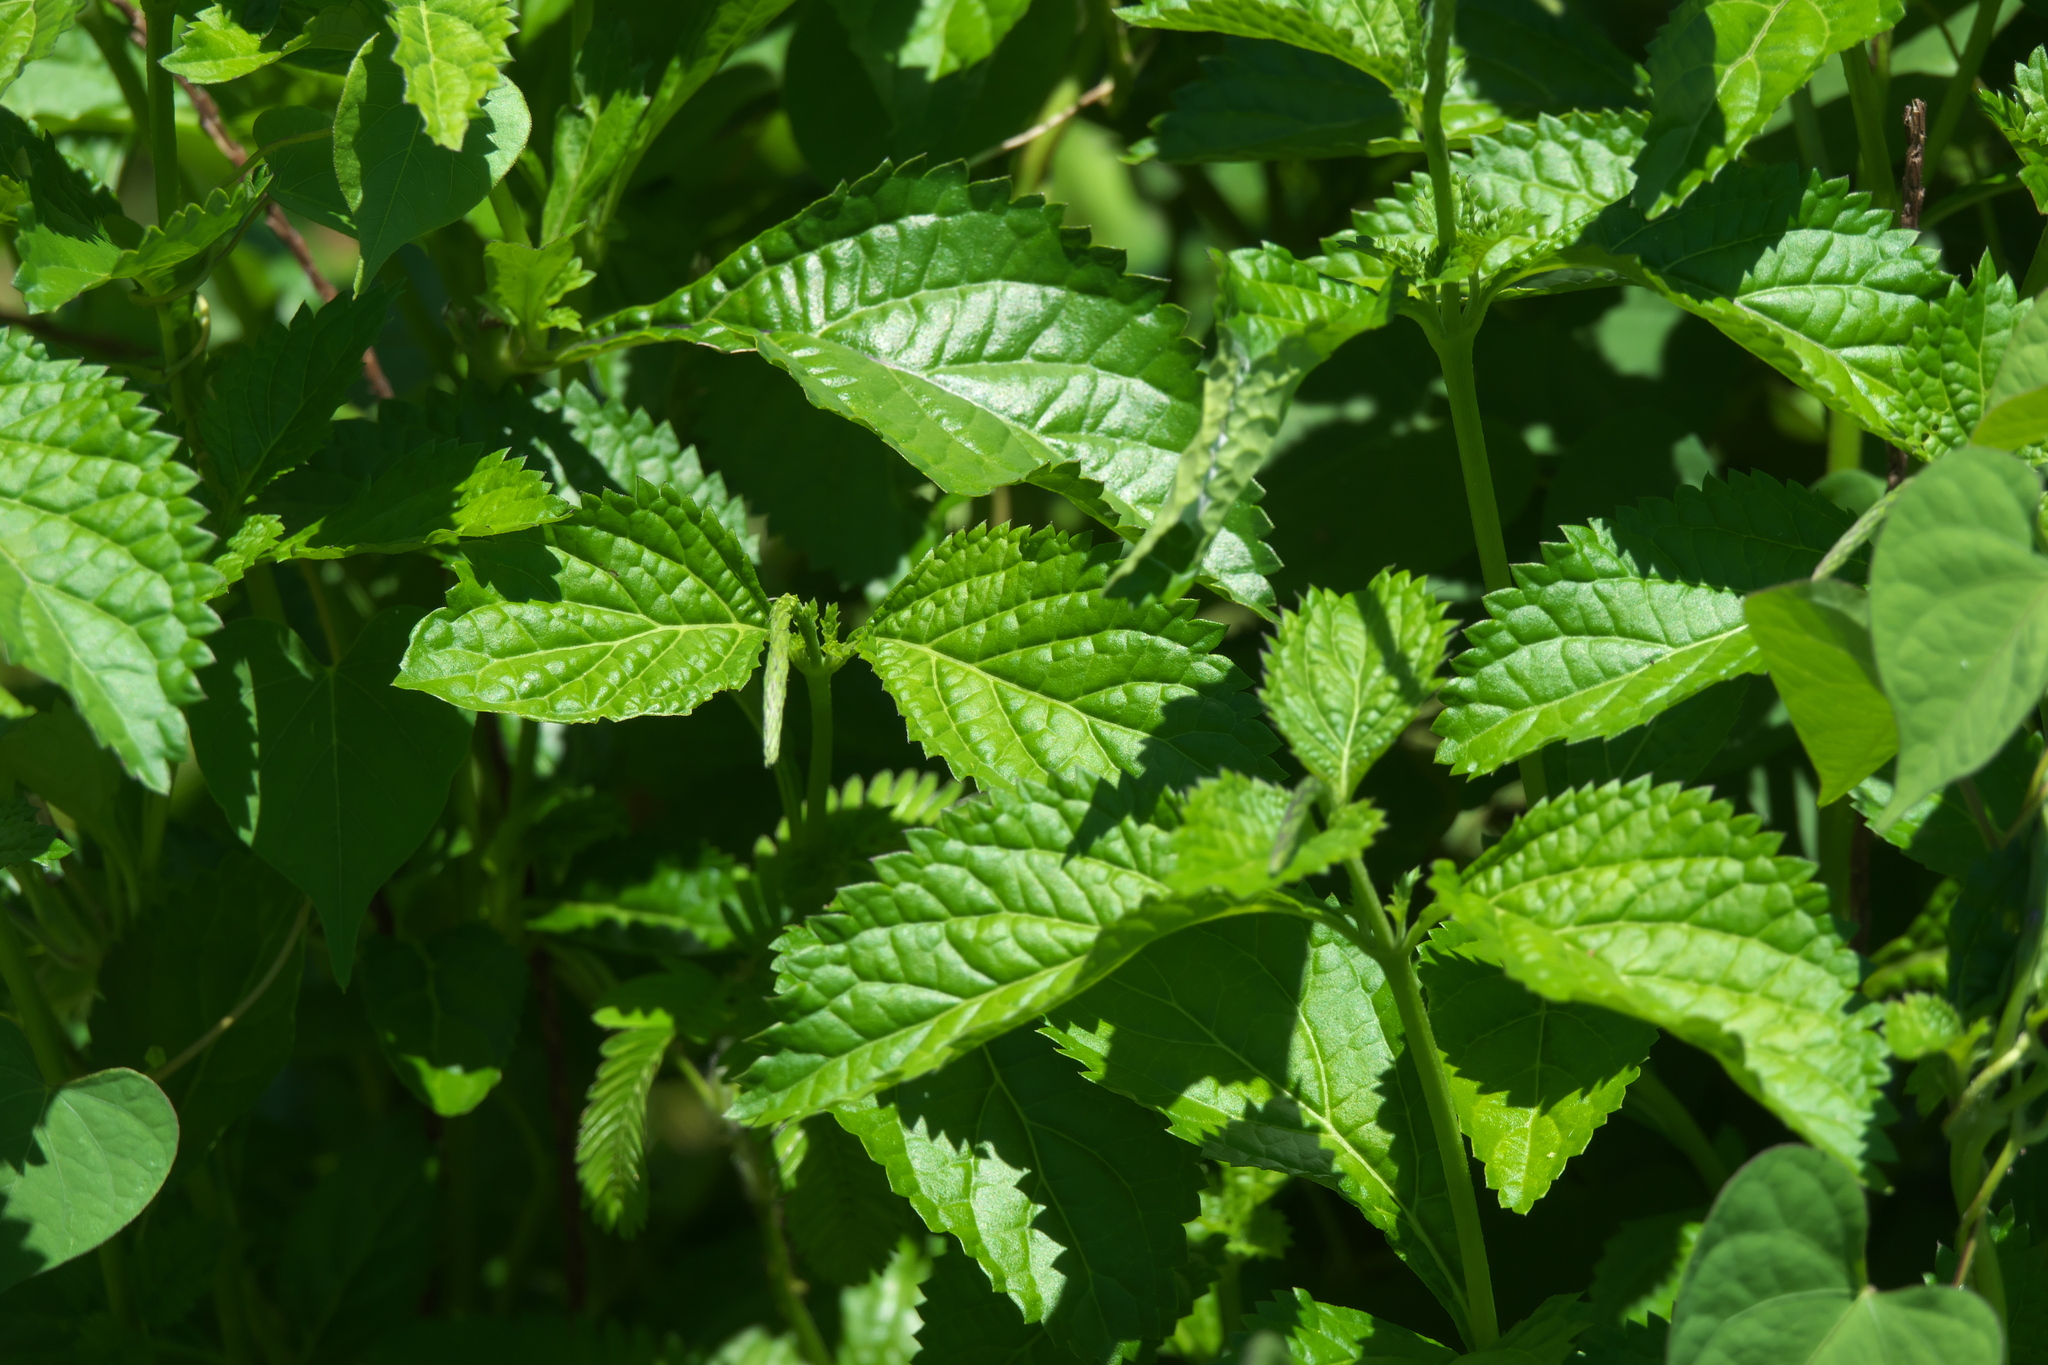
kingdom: Plantae
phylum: Tracheophyta
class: Magnoliopsida
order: Lamiales
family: Verbenaceae
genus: Stachytarpheta
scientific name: Stachytarpheta cayennensis
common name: Cayenne porterweed
